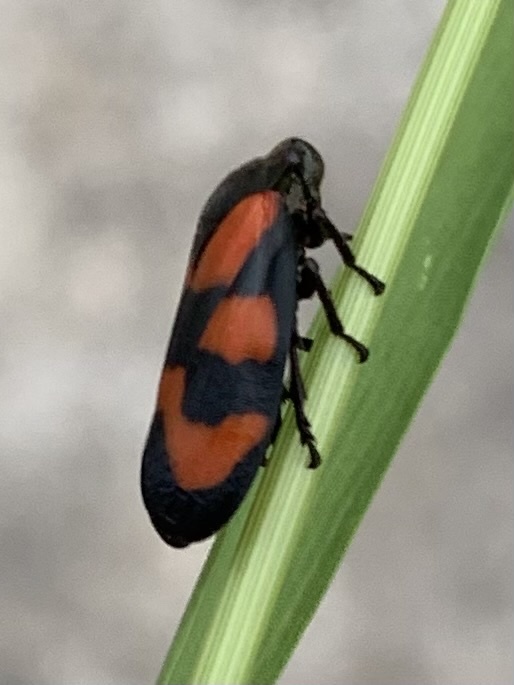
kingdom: Animalia
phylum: Arthropoda
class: Insecta
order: Hemiptera
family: Cercopidae
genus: Cercopis
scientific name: Cercopis vulnerata
